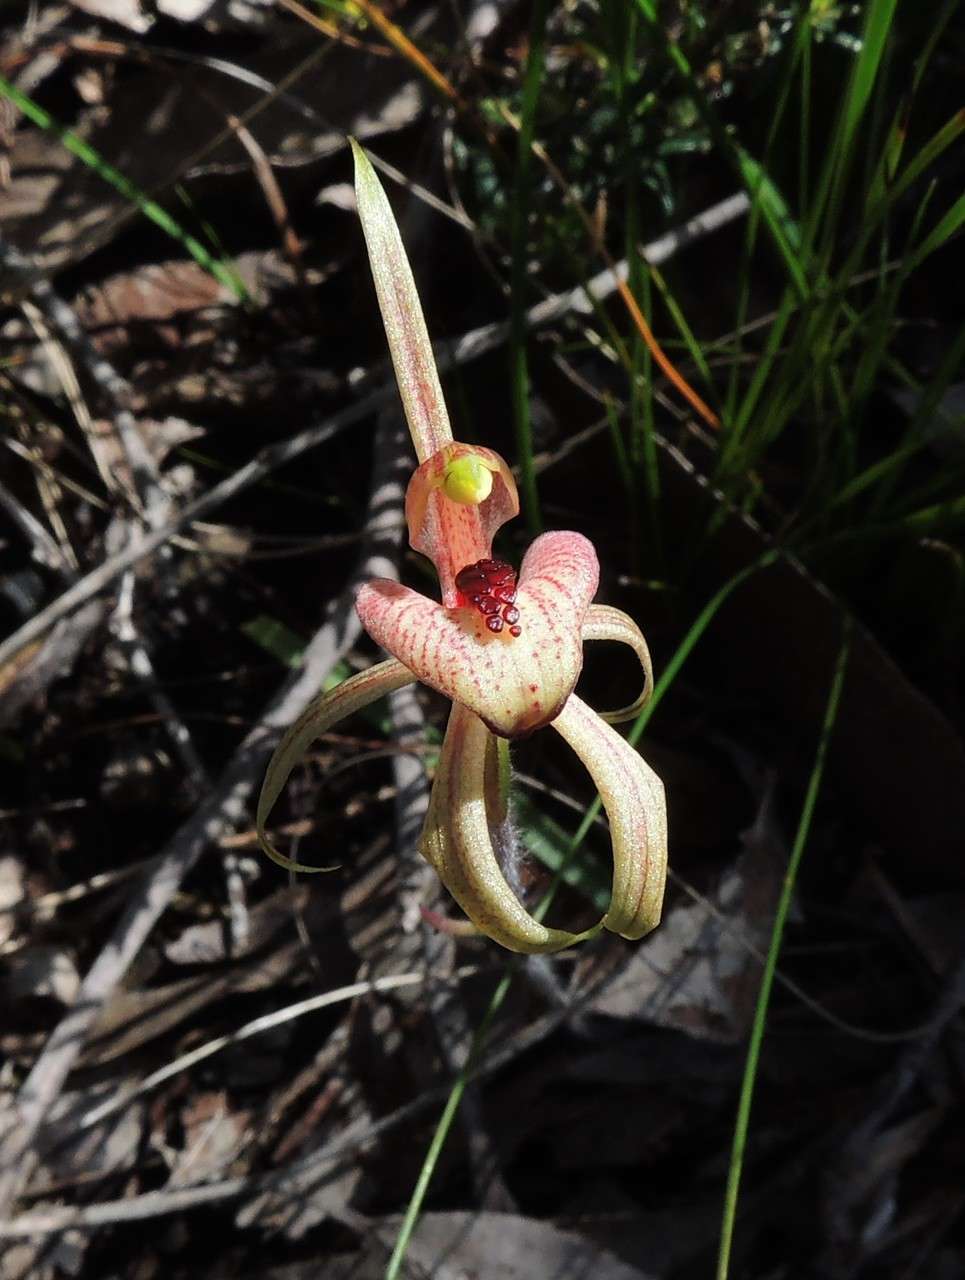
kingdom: Plantae
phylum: Tracheophyta
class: Liliopsida
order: Asparagales
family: Orchidaceae
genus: Caladenia
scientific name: Caladenia cardiochila
